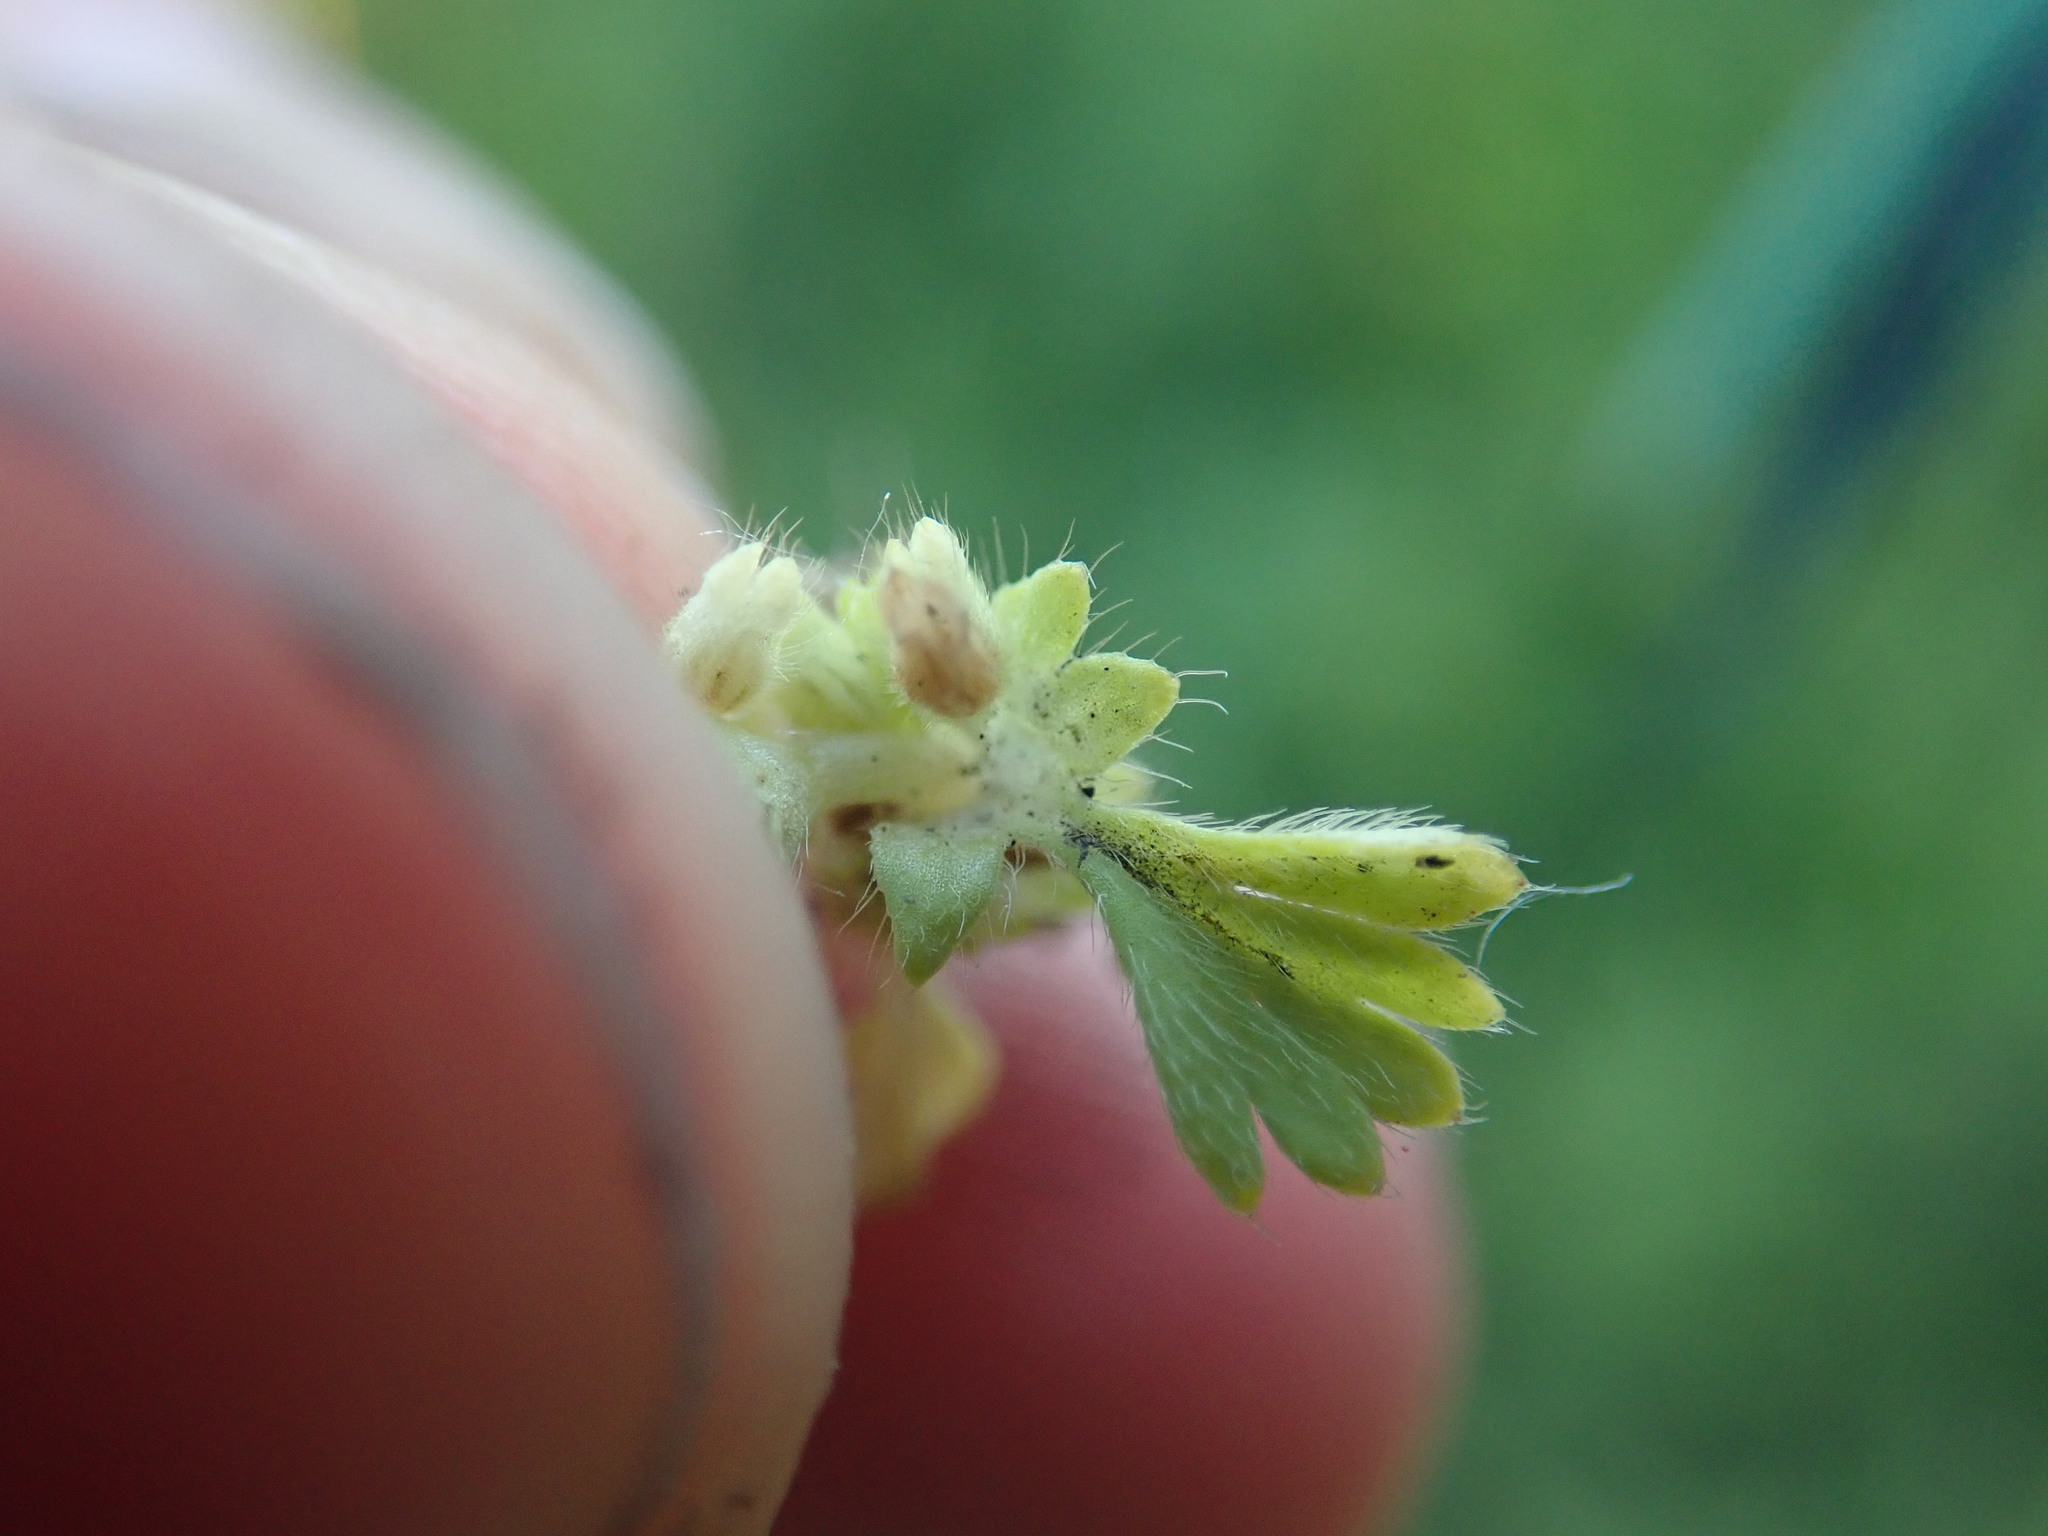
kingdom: Plantae
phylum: Tracheophyta
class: Magnoliopsida
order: Rosales
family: Rosaceae
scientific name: Rosaceae
